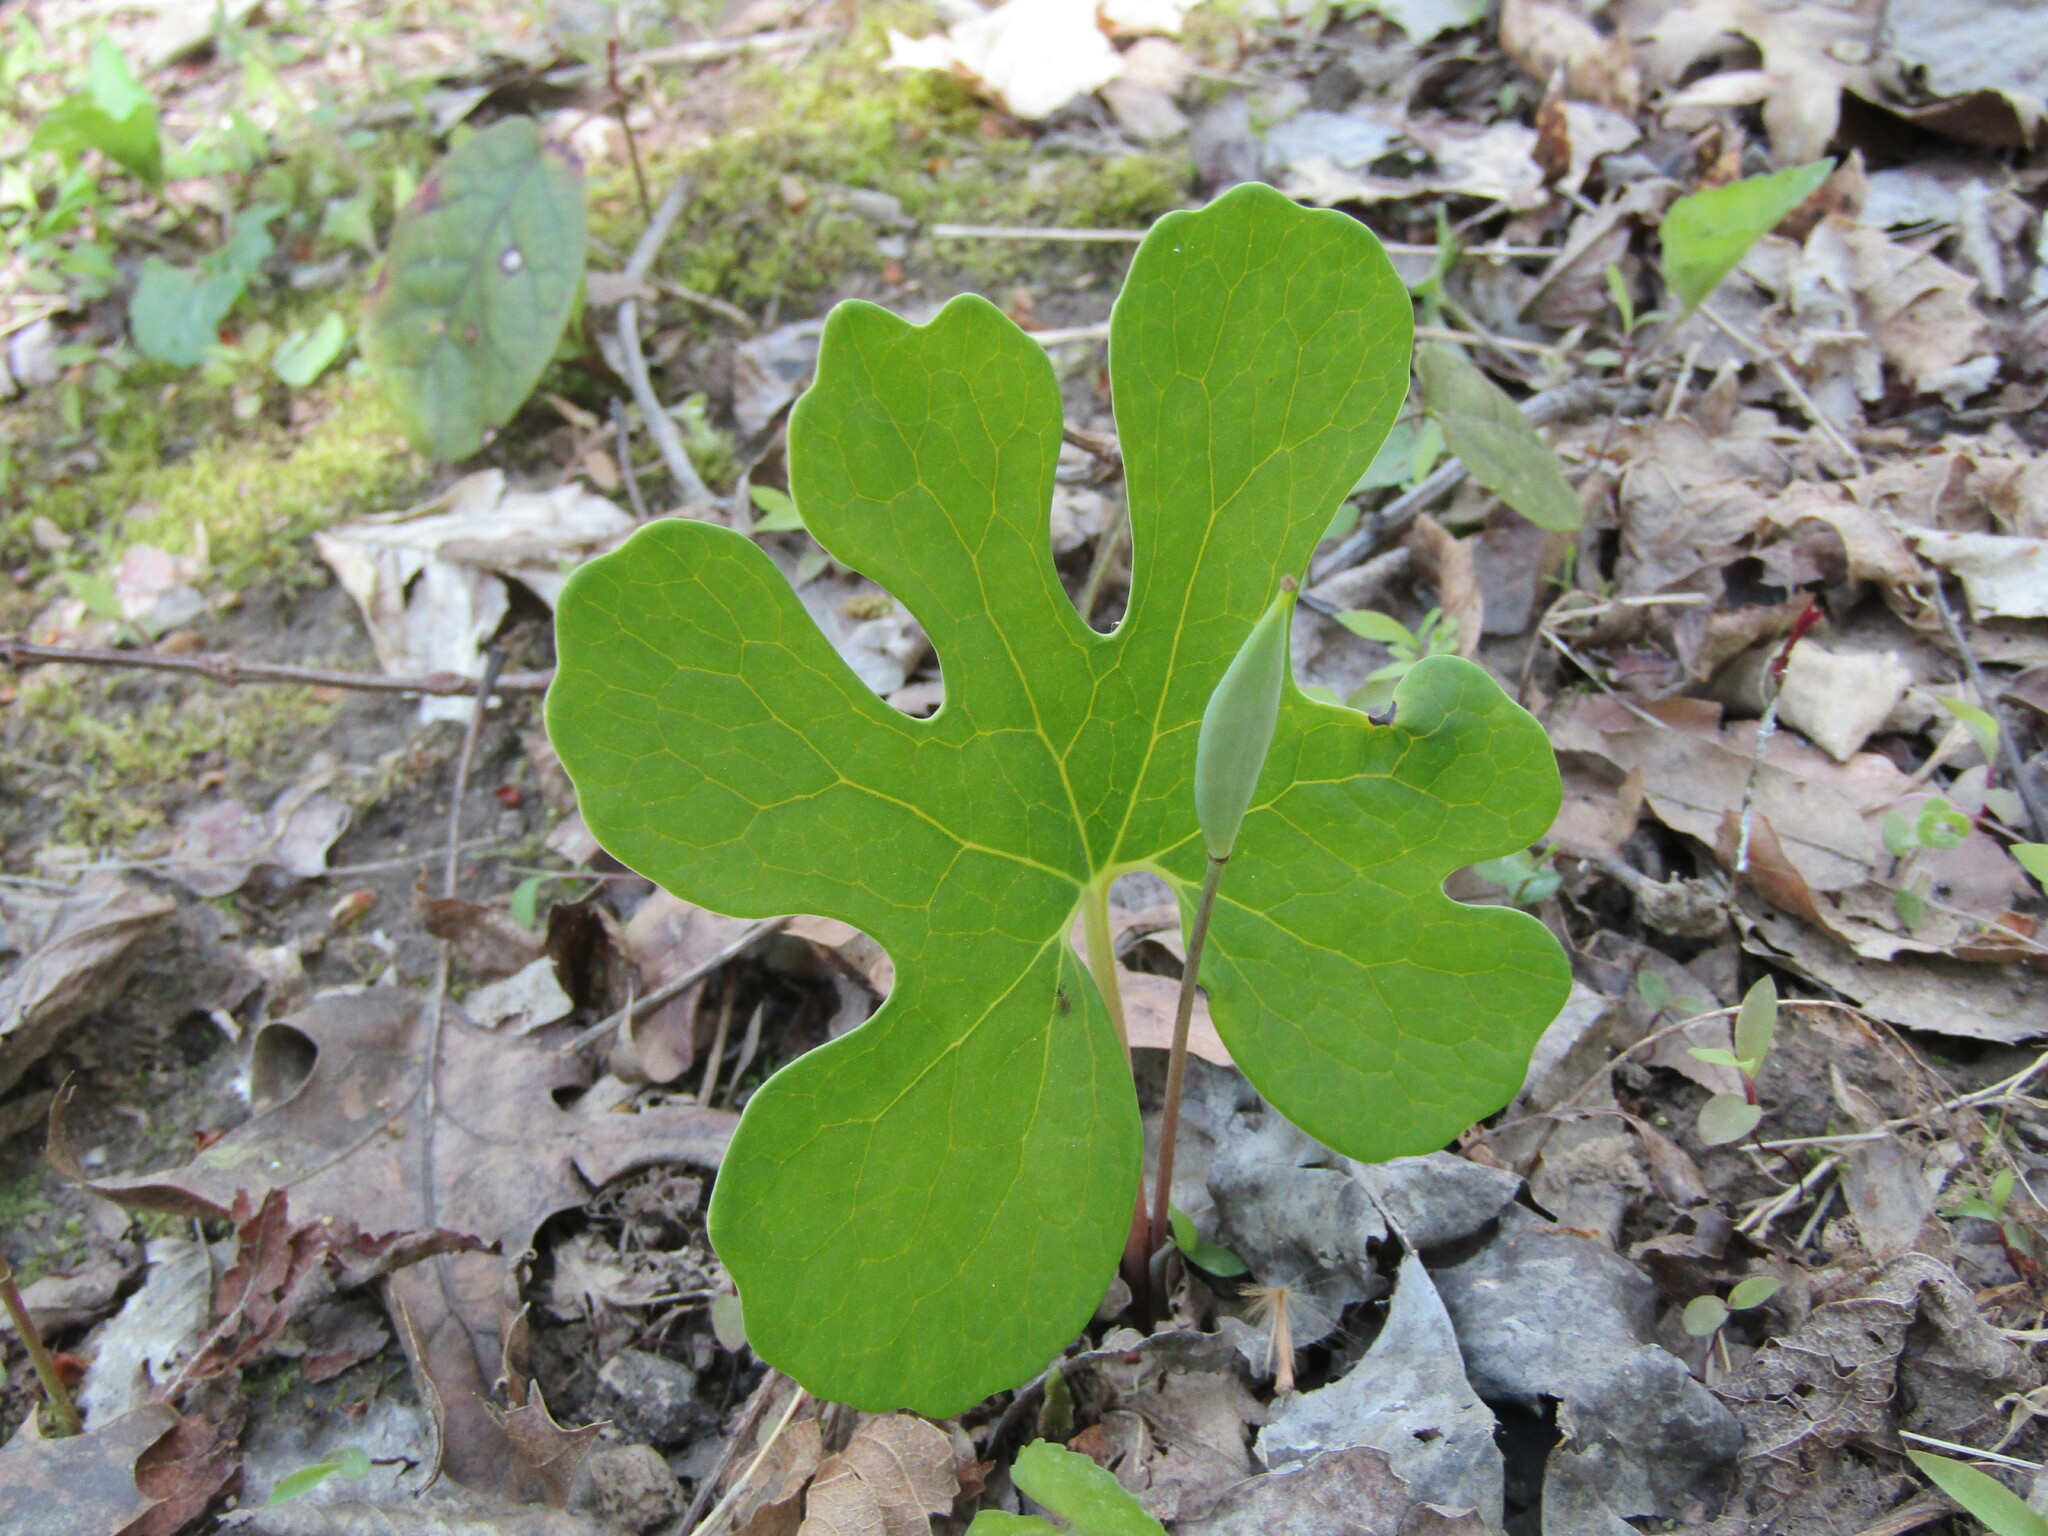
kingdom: Plantae
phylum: Tracheophyta
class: Magnoliopsida
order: Ranunculales
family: Papaveraceae
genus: Sanguinaria
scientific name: Sanguinaria canadensis
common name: Bloodroot
